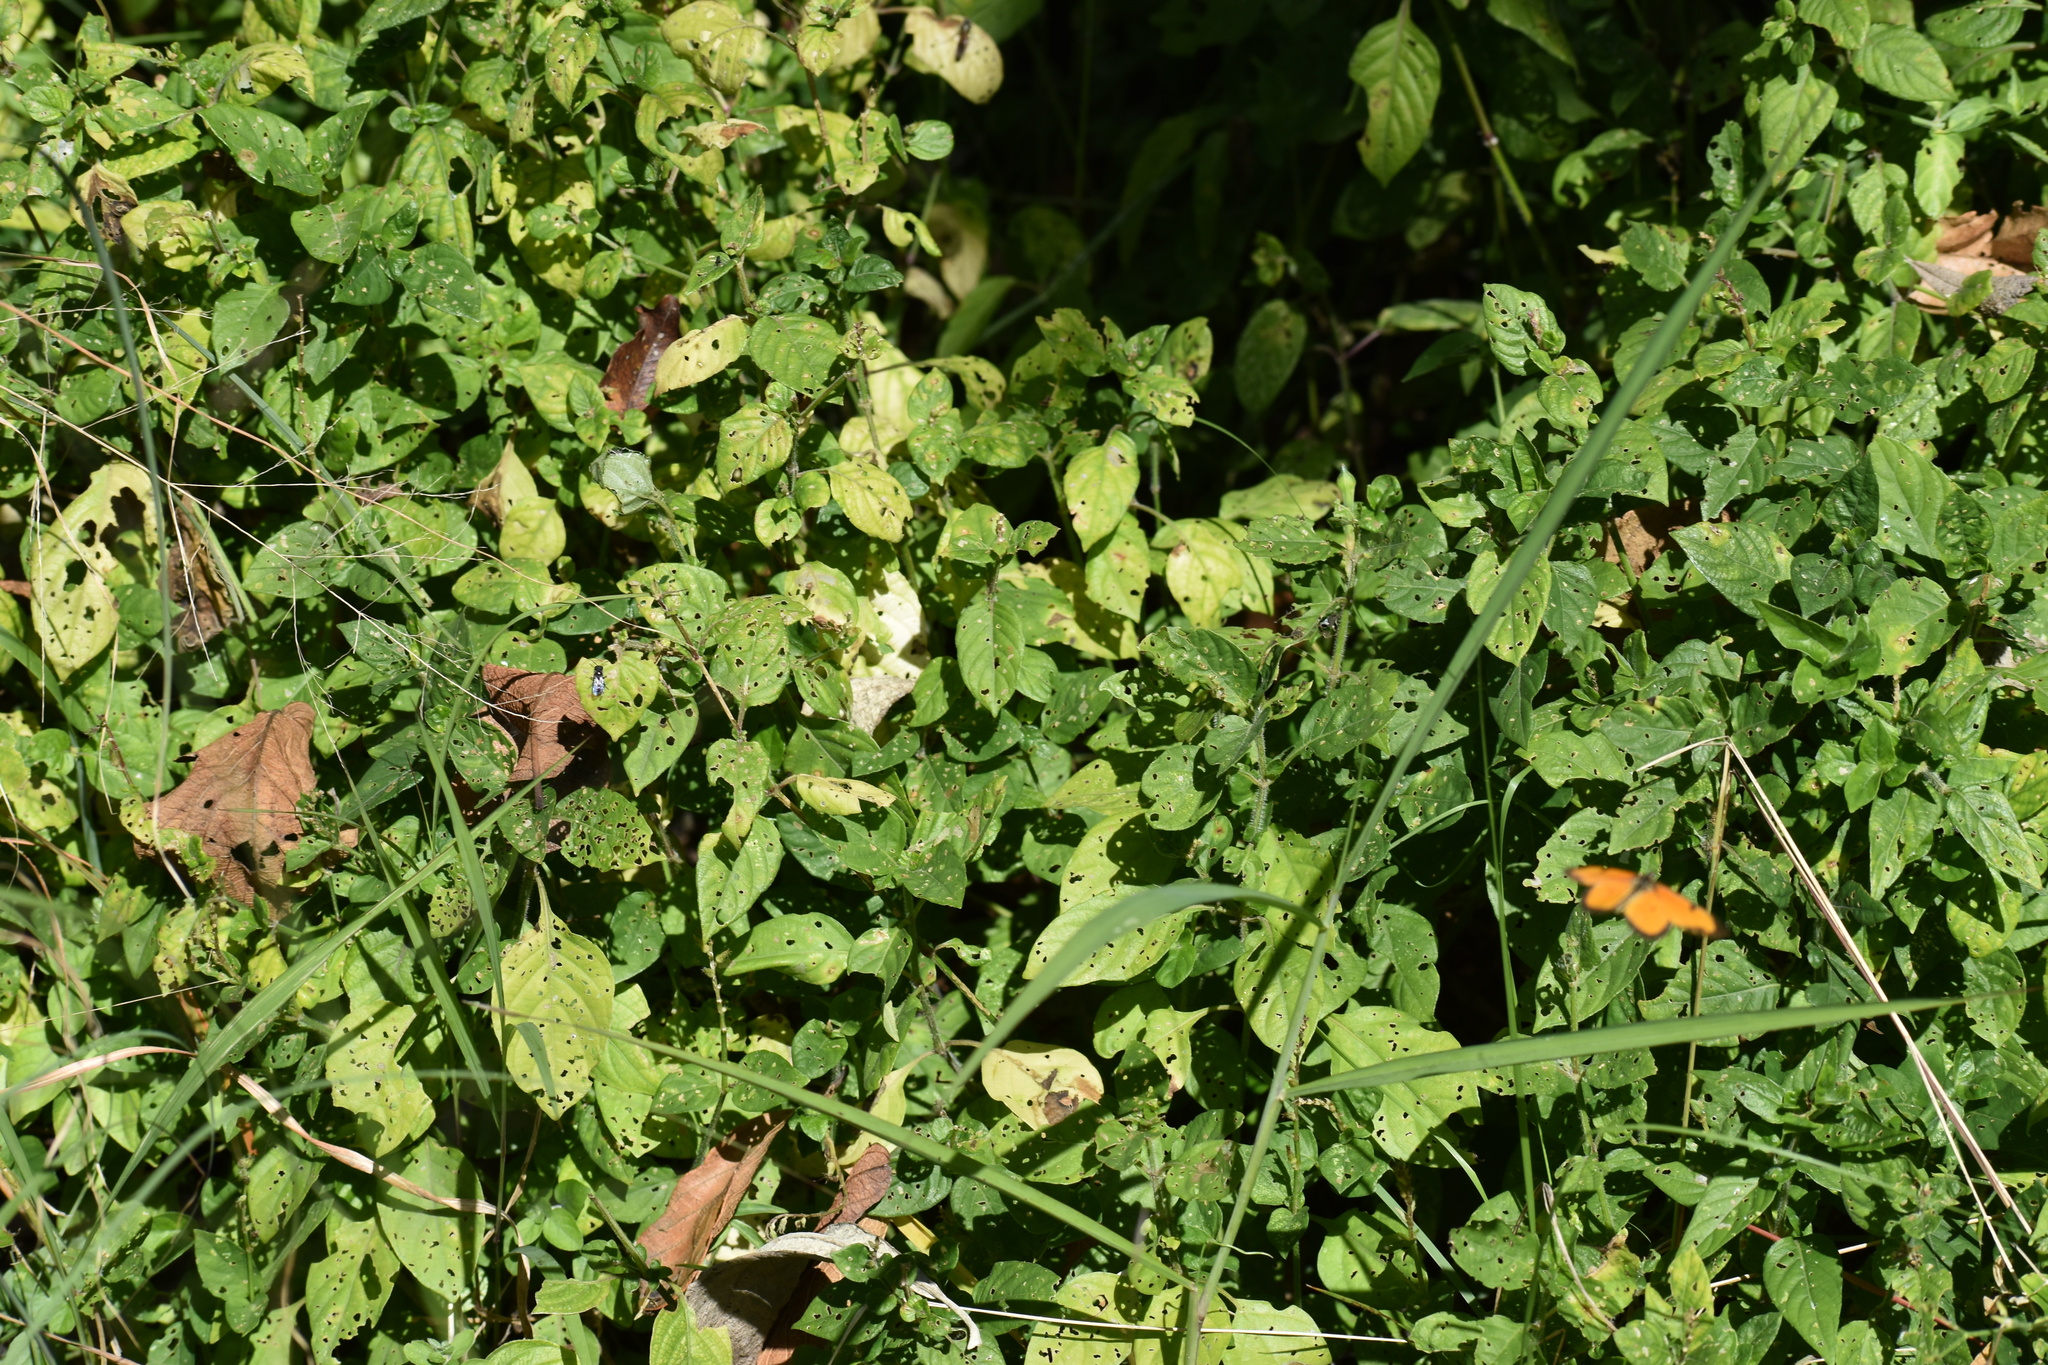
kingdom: Plantae
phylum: Tracheophyta
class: Magnoliopsida
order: Lamiales
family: Acanthaceae
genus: Asystasia
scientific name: Asystasia intrusa
